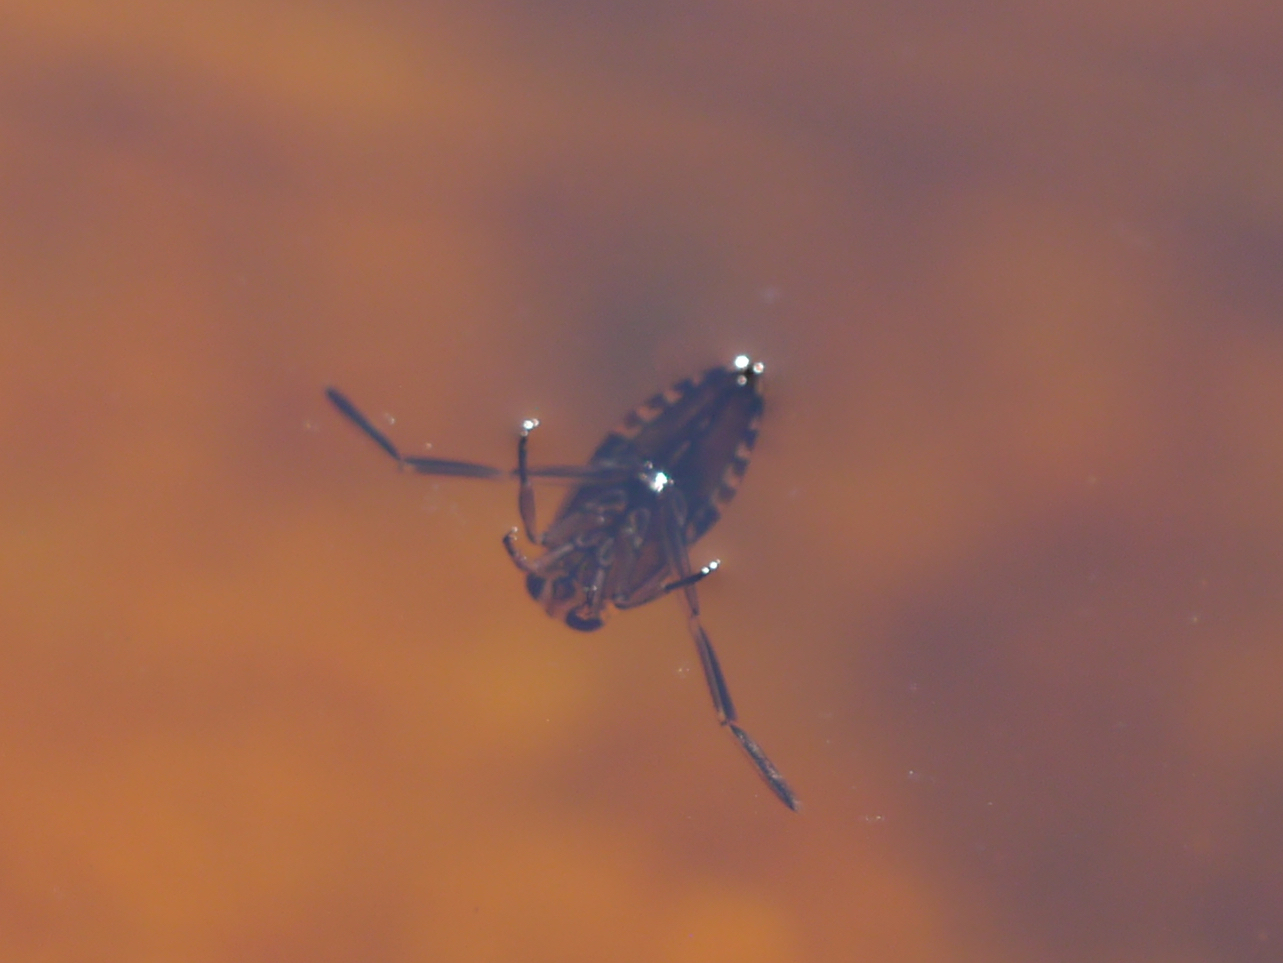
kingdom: Animalia
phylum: Arthropoda
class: Insecta
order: Hemiptera
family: Notonectidae
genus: Notonecta
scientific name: Notonecta
